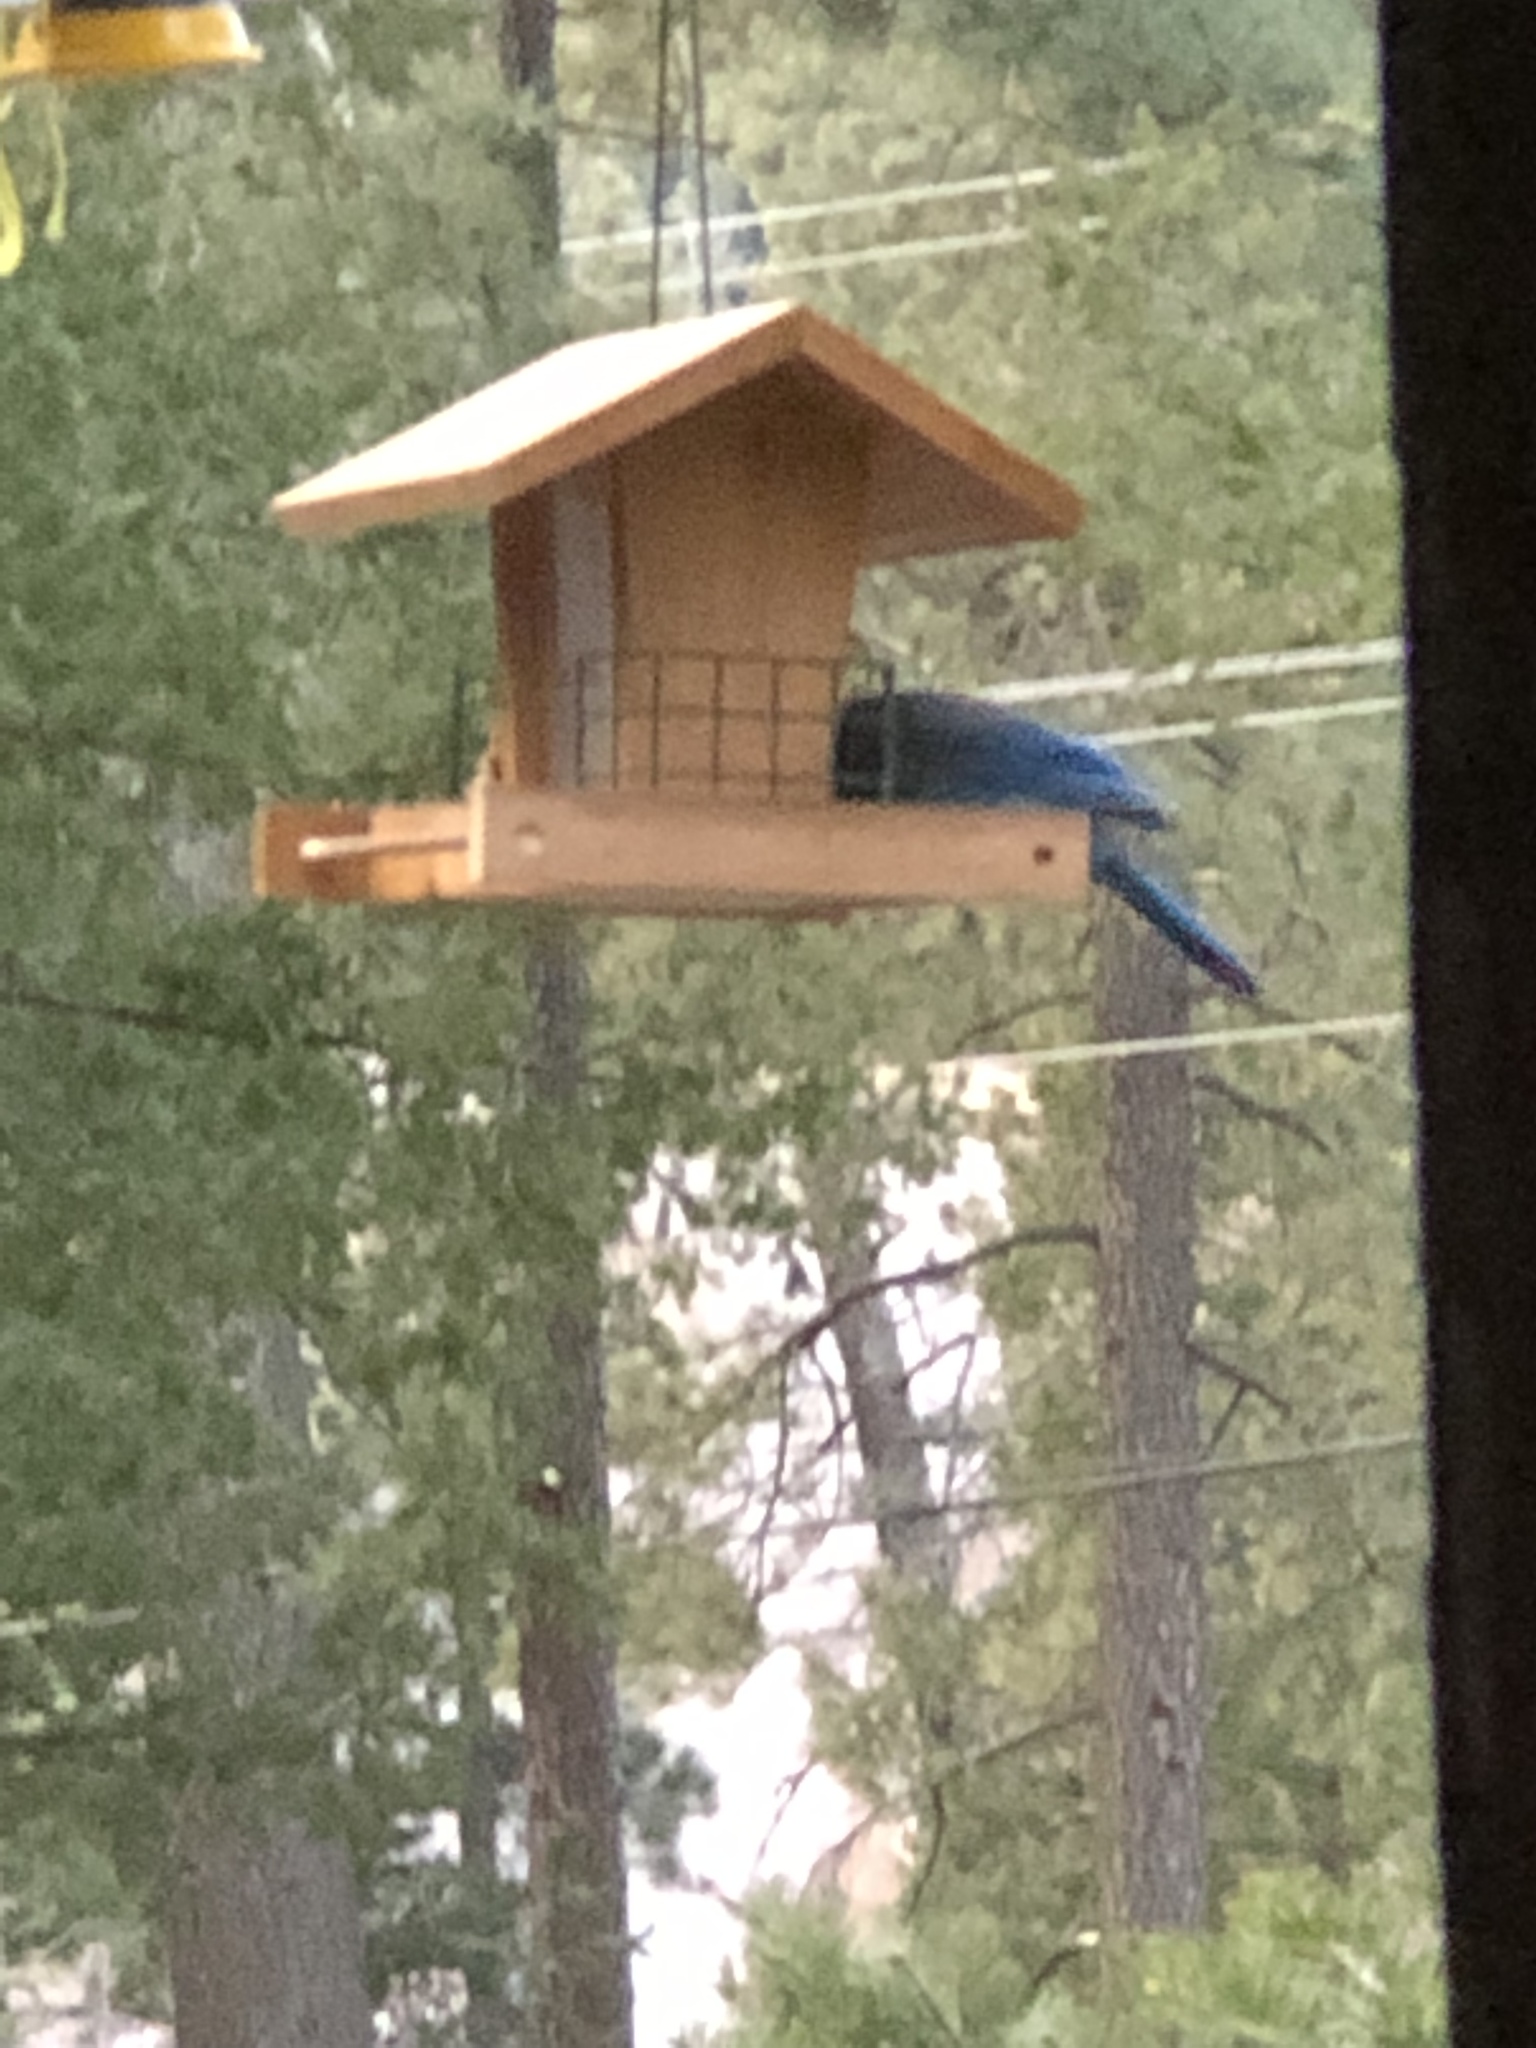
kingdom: Animalia
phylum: Chordata
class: Aves
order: Passeriformes
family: Corvidae
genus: Cyanocitta
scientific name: Cyanocitta stelleri
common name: Steller's jay
